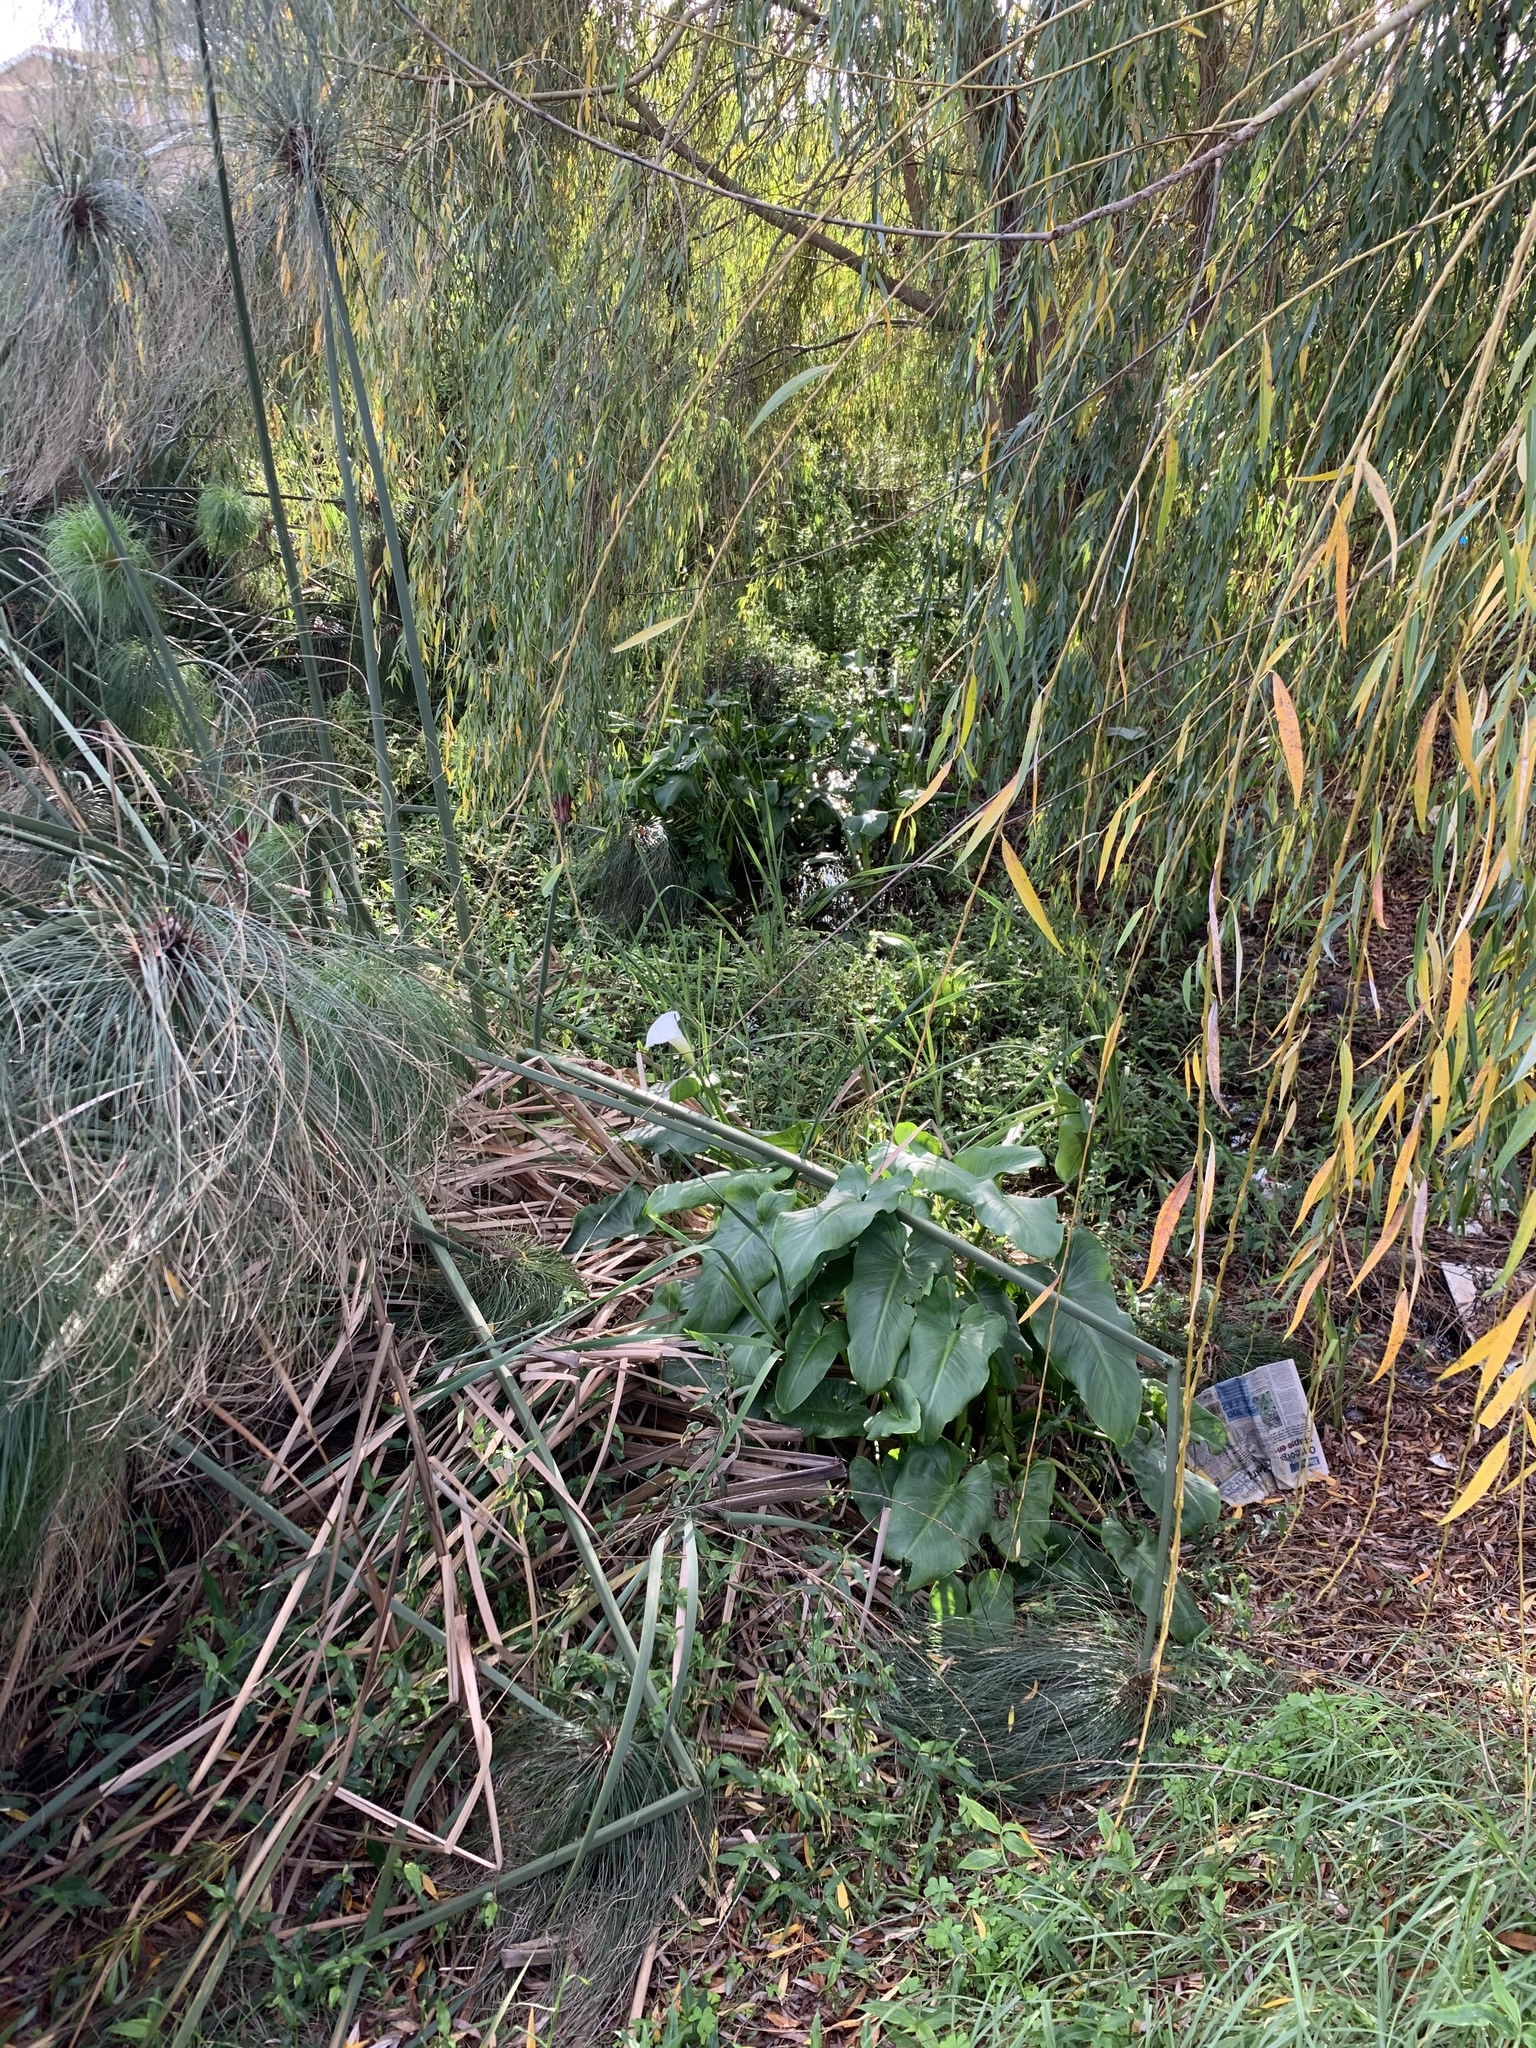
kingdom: Plantae
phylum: Tracheophyta
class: Liliopsida
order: Alismatales
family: Araceae
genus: Zantedeschia
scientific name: Zantedeschia aethiopica
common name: Altar-lily
